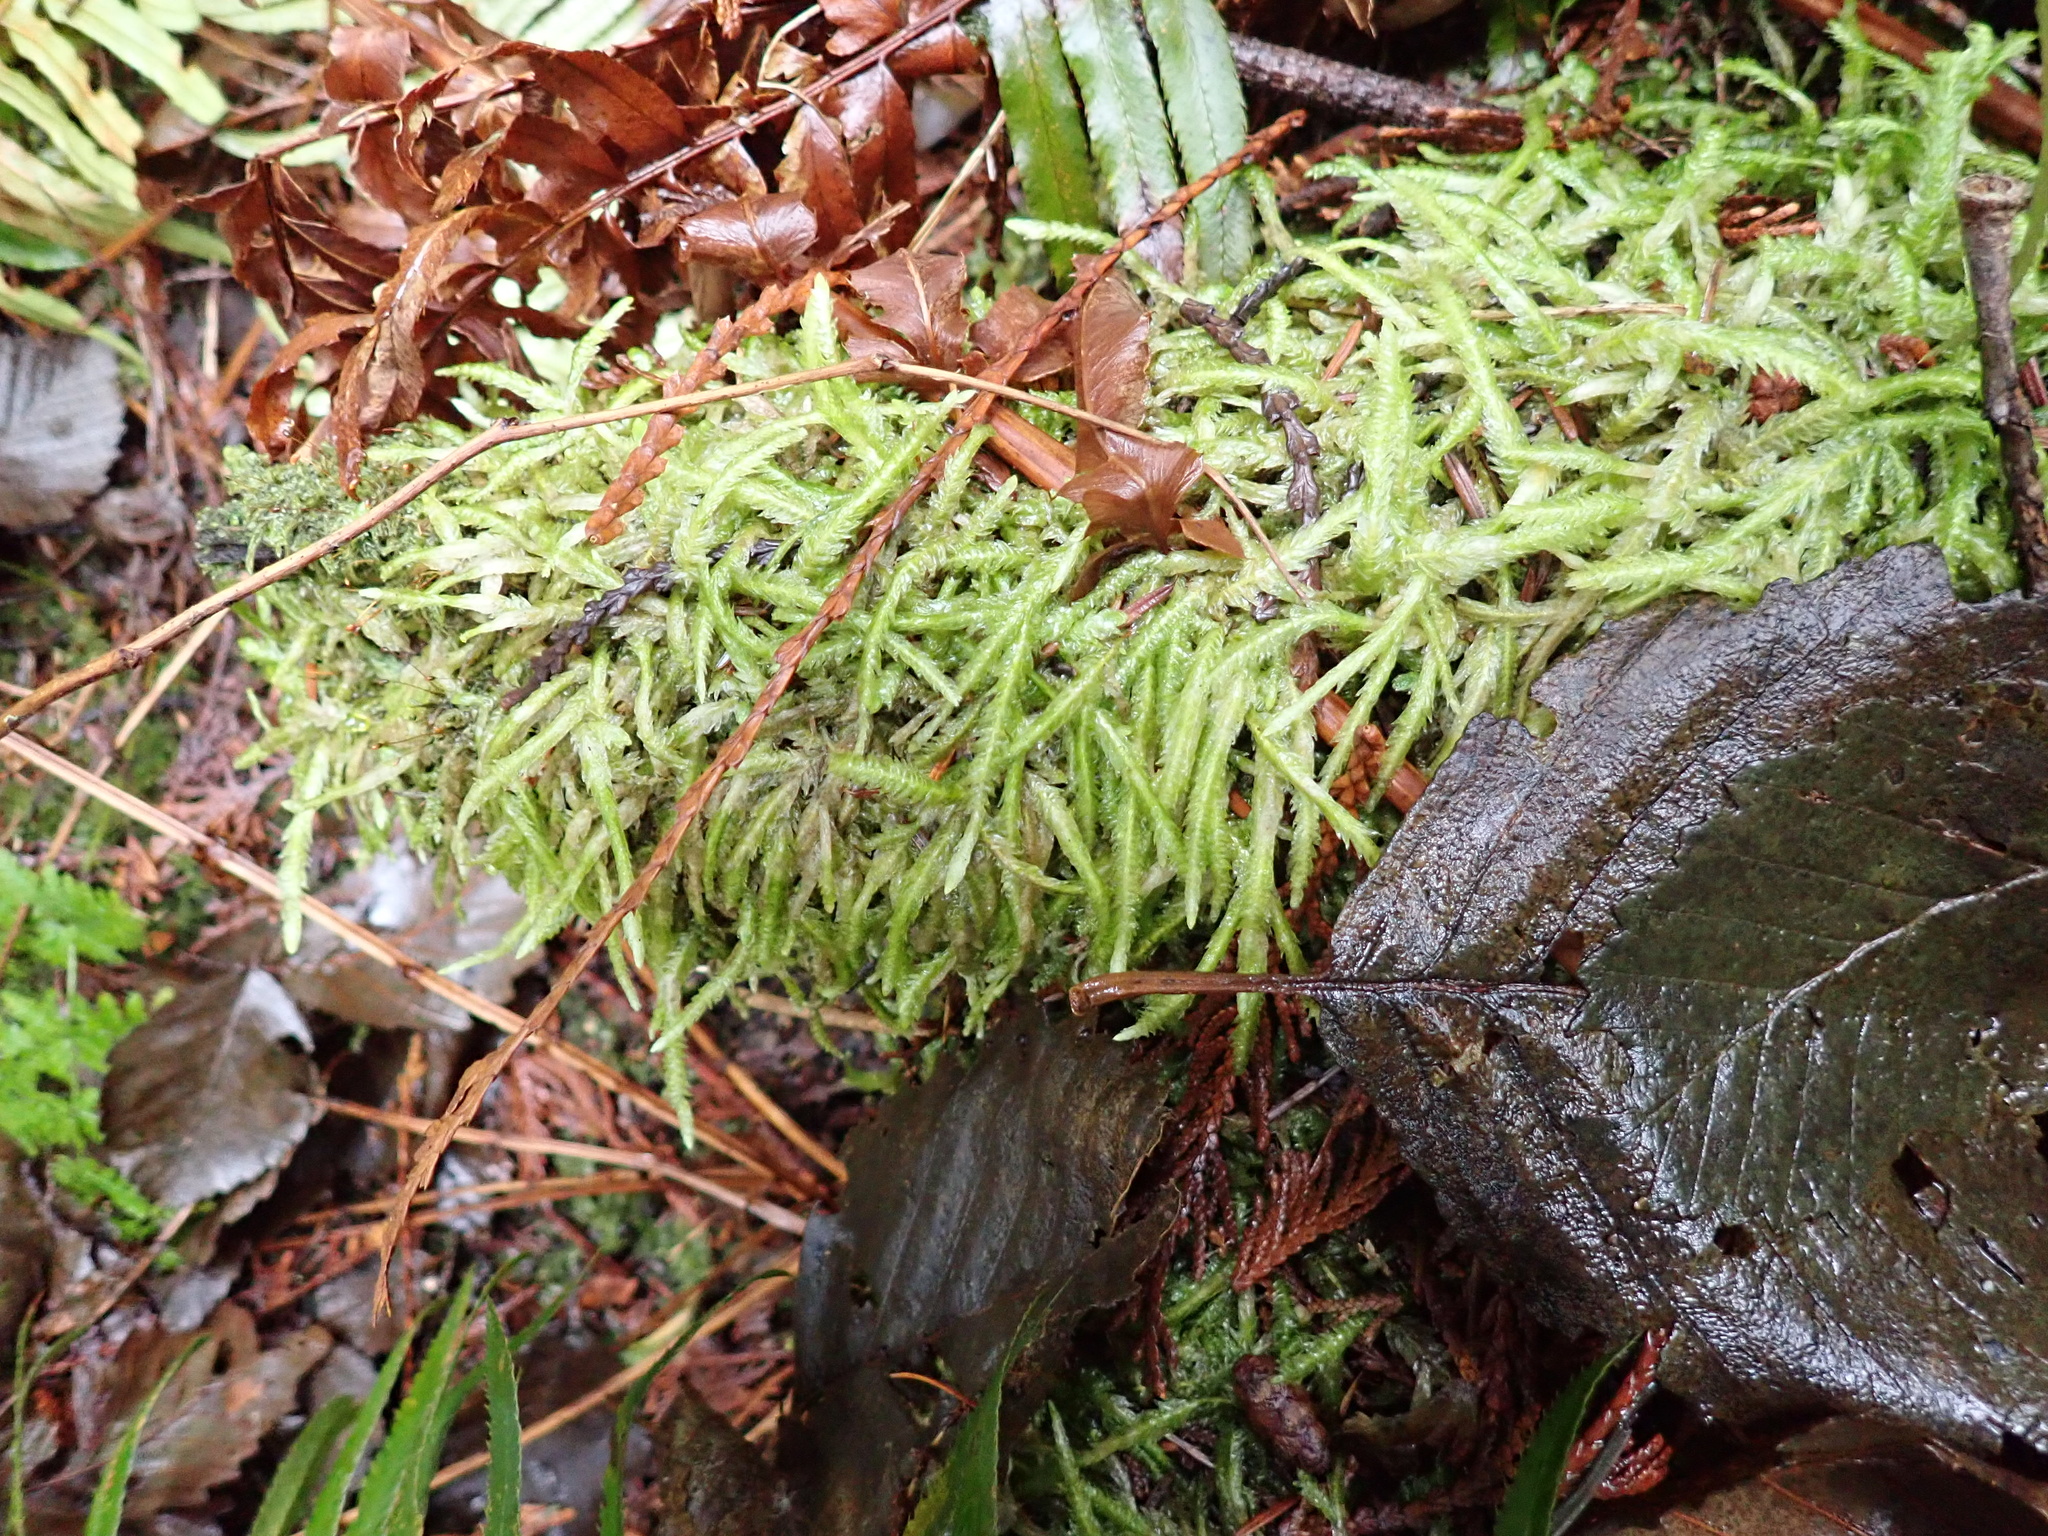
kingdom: Plantae
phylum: Bryophyta
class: Bryopsida
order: Hypnales
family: Plagiotheciaceae
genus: Plagiothecium
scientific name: Plagiothecium undulatum
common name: Waved silk-moss
